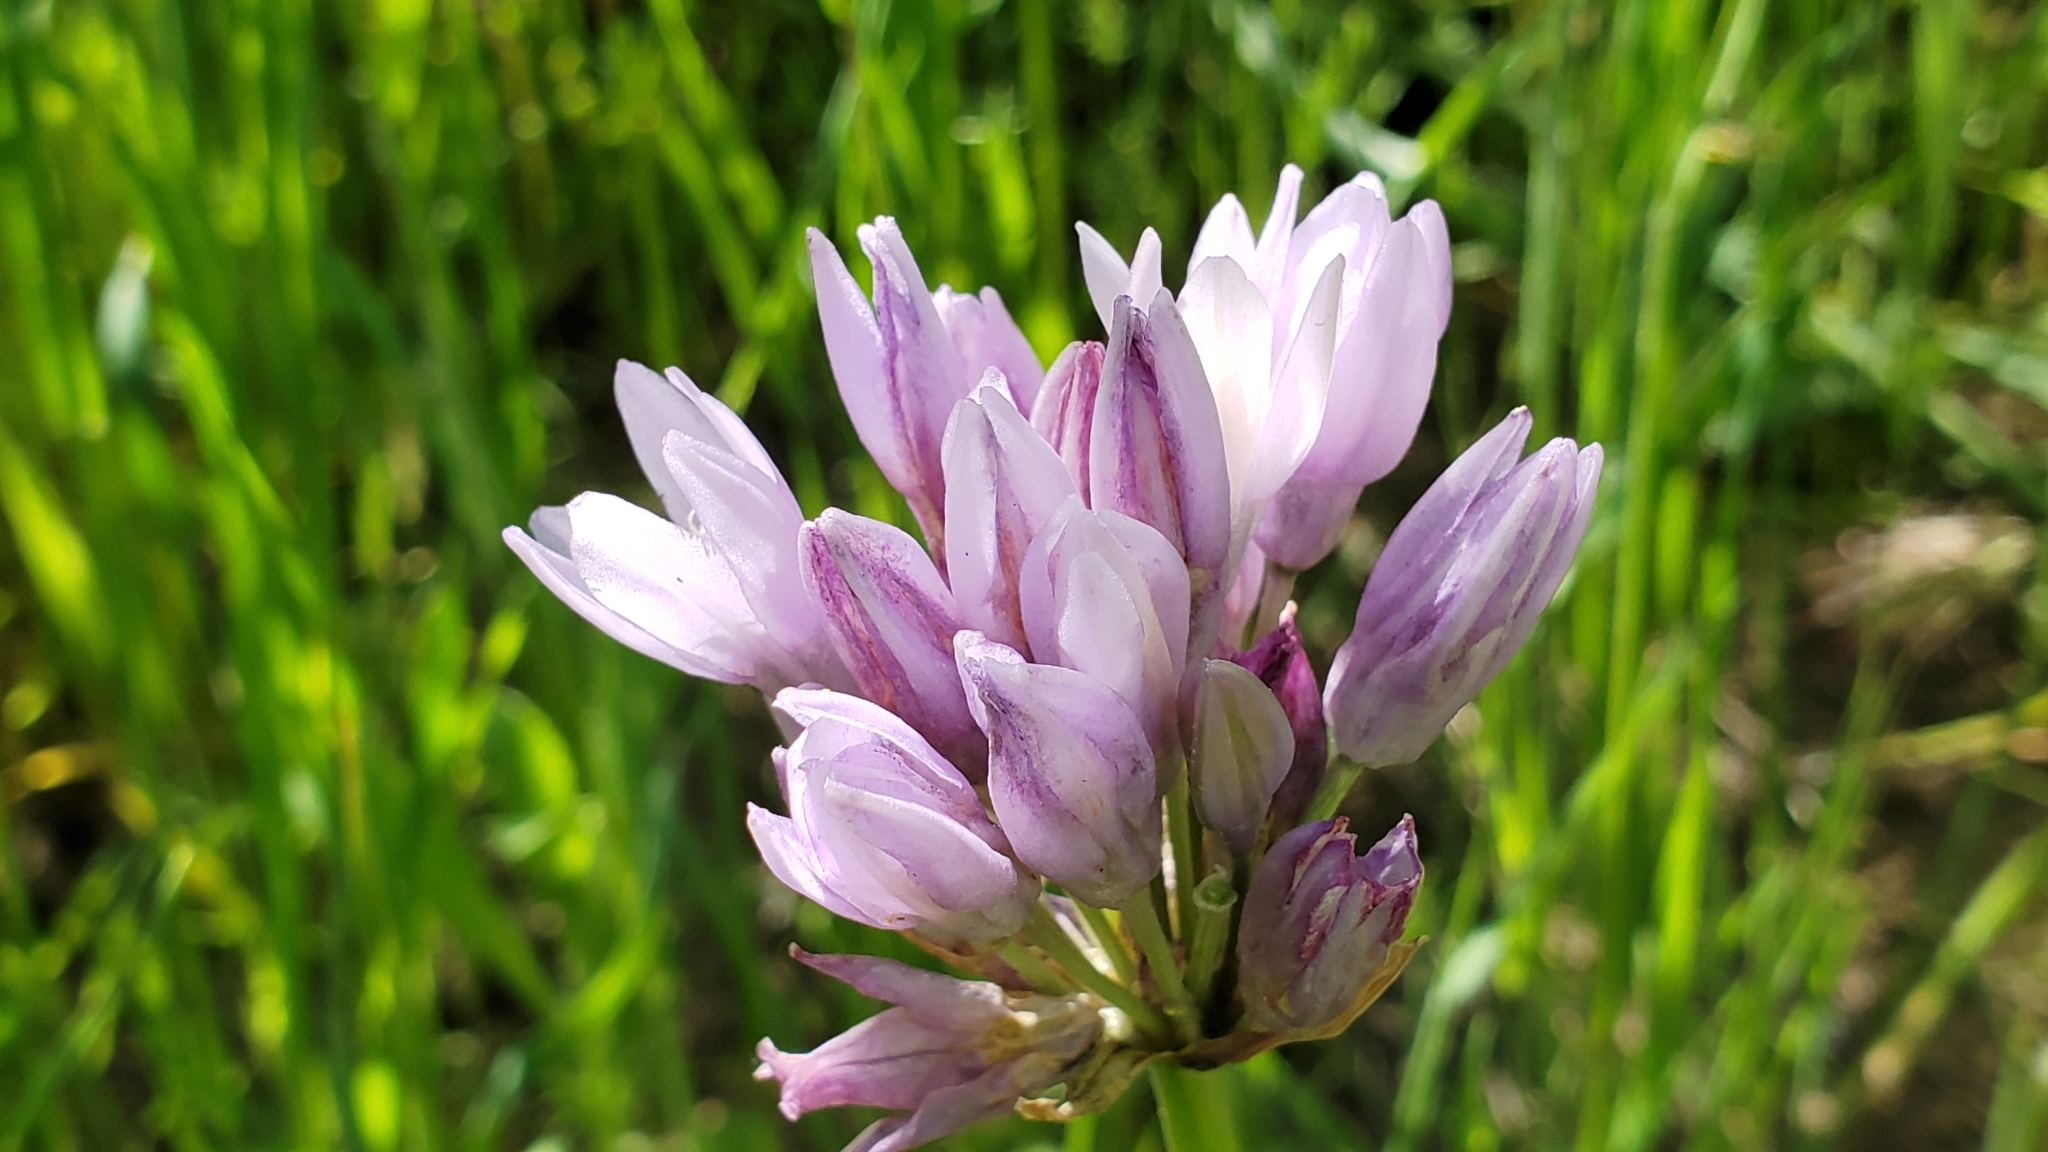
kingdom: Plantae
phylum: Tracheophyta
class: Liliopsida
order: Asparagales
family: Asparagaceae
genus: Dipterostemon
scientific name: Dipterostemon capitatus
